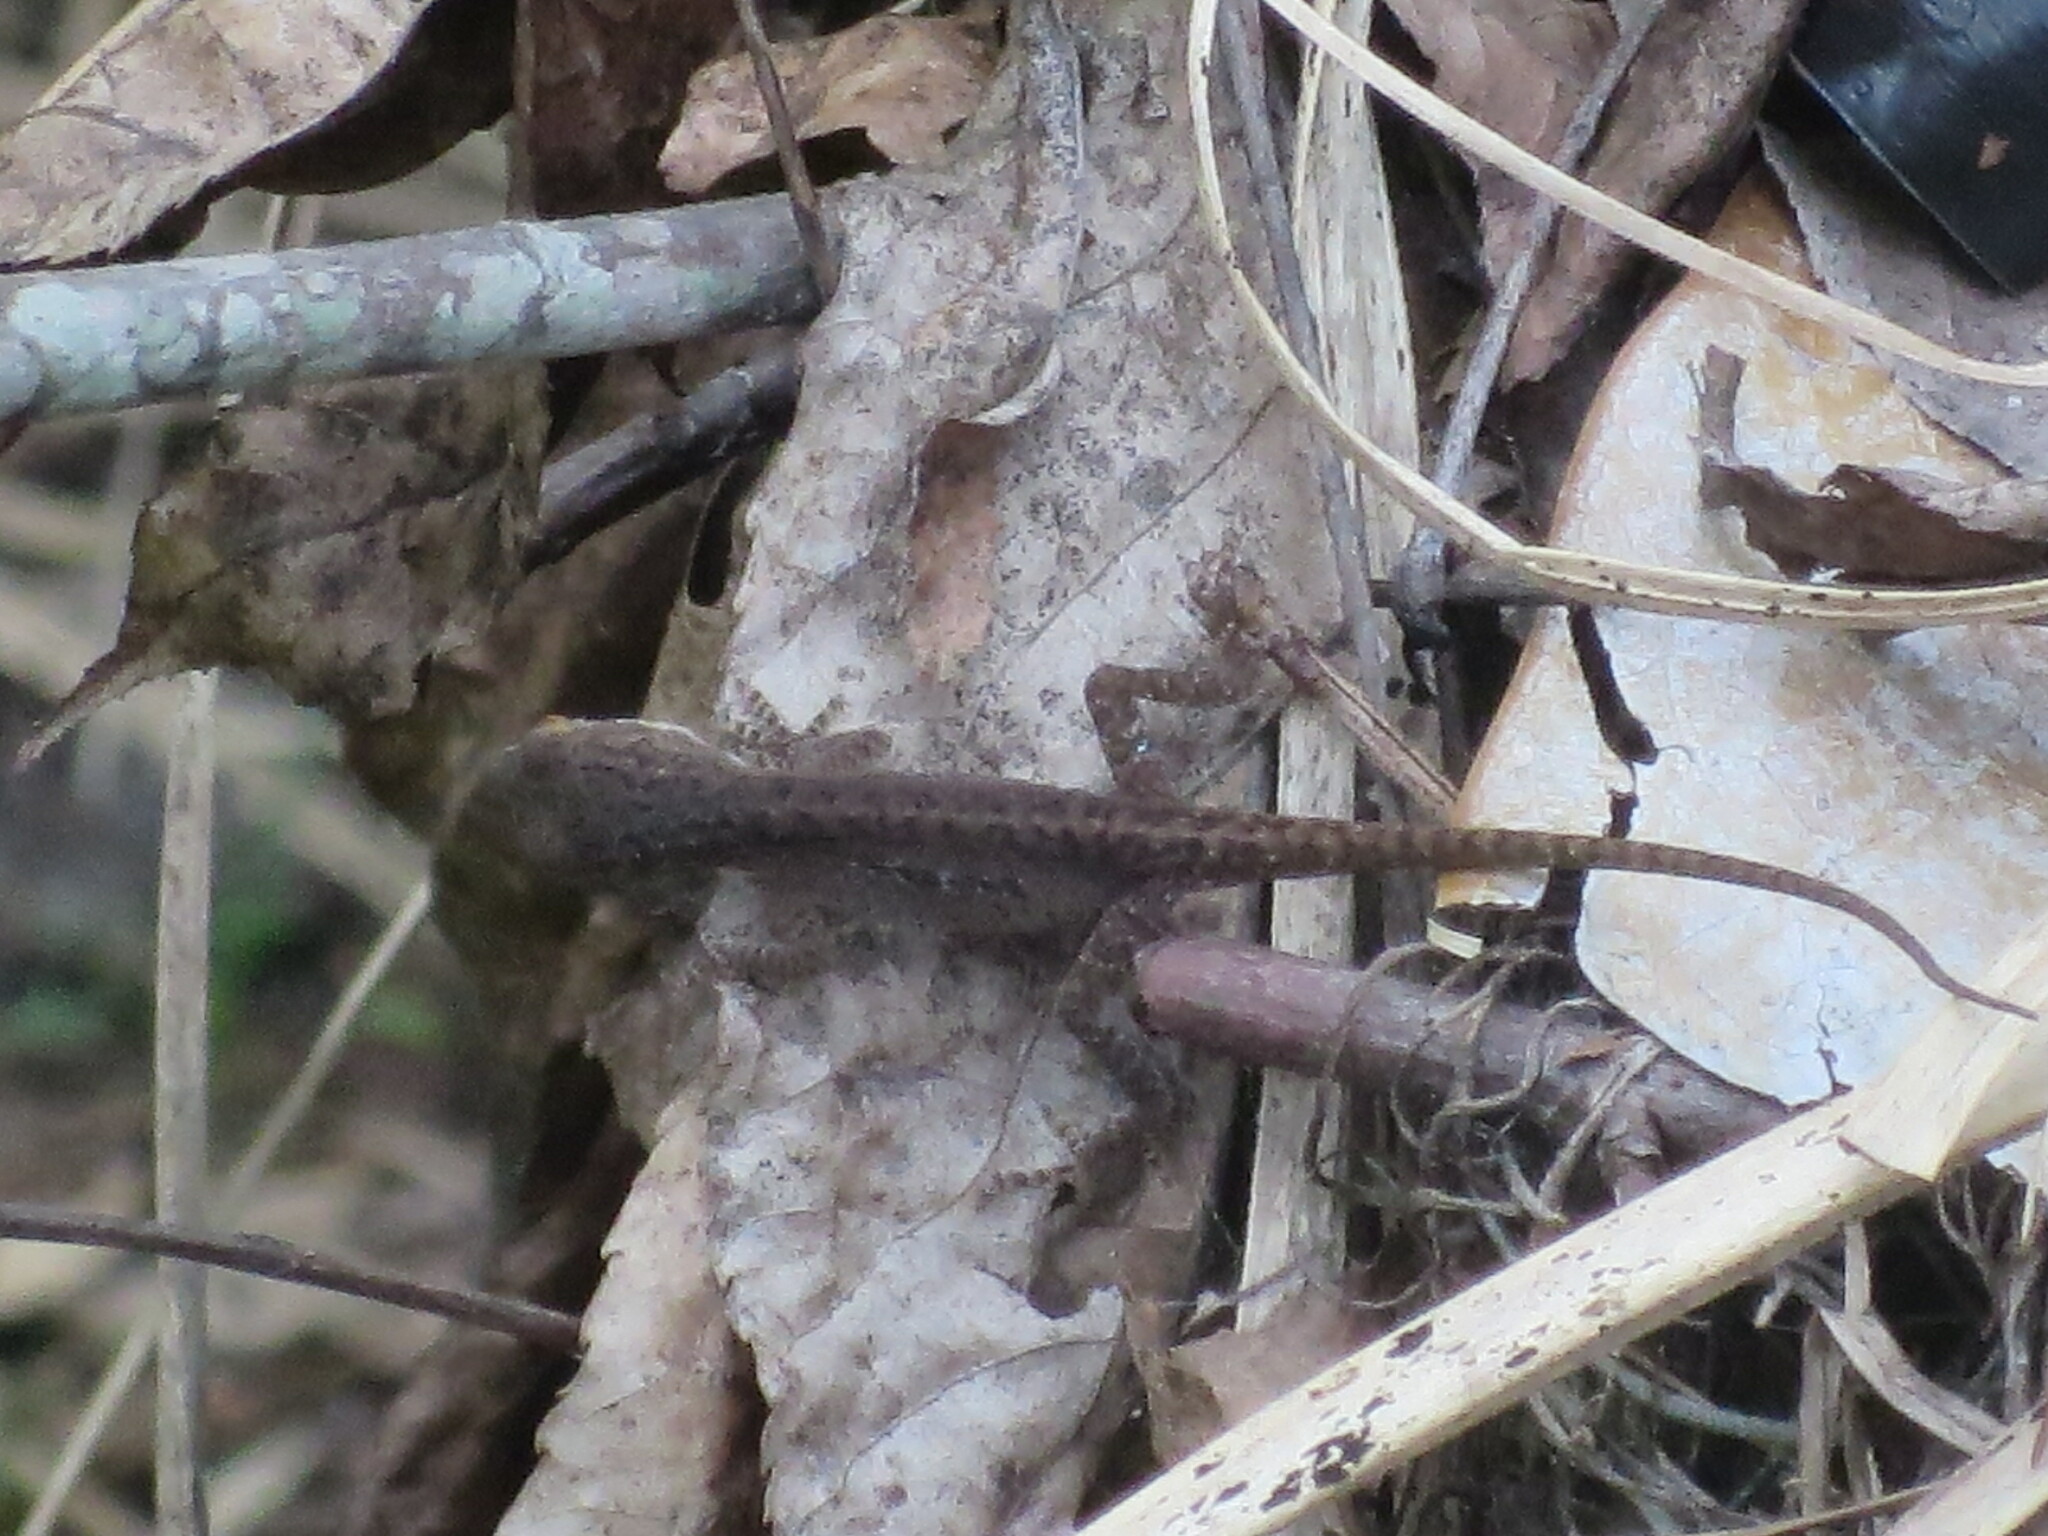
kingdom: Animalia
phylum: Chordata
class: Squamata
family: Dactyloidae
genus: Anolis
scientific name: Anolis carolinensis
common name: Green anole
